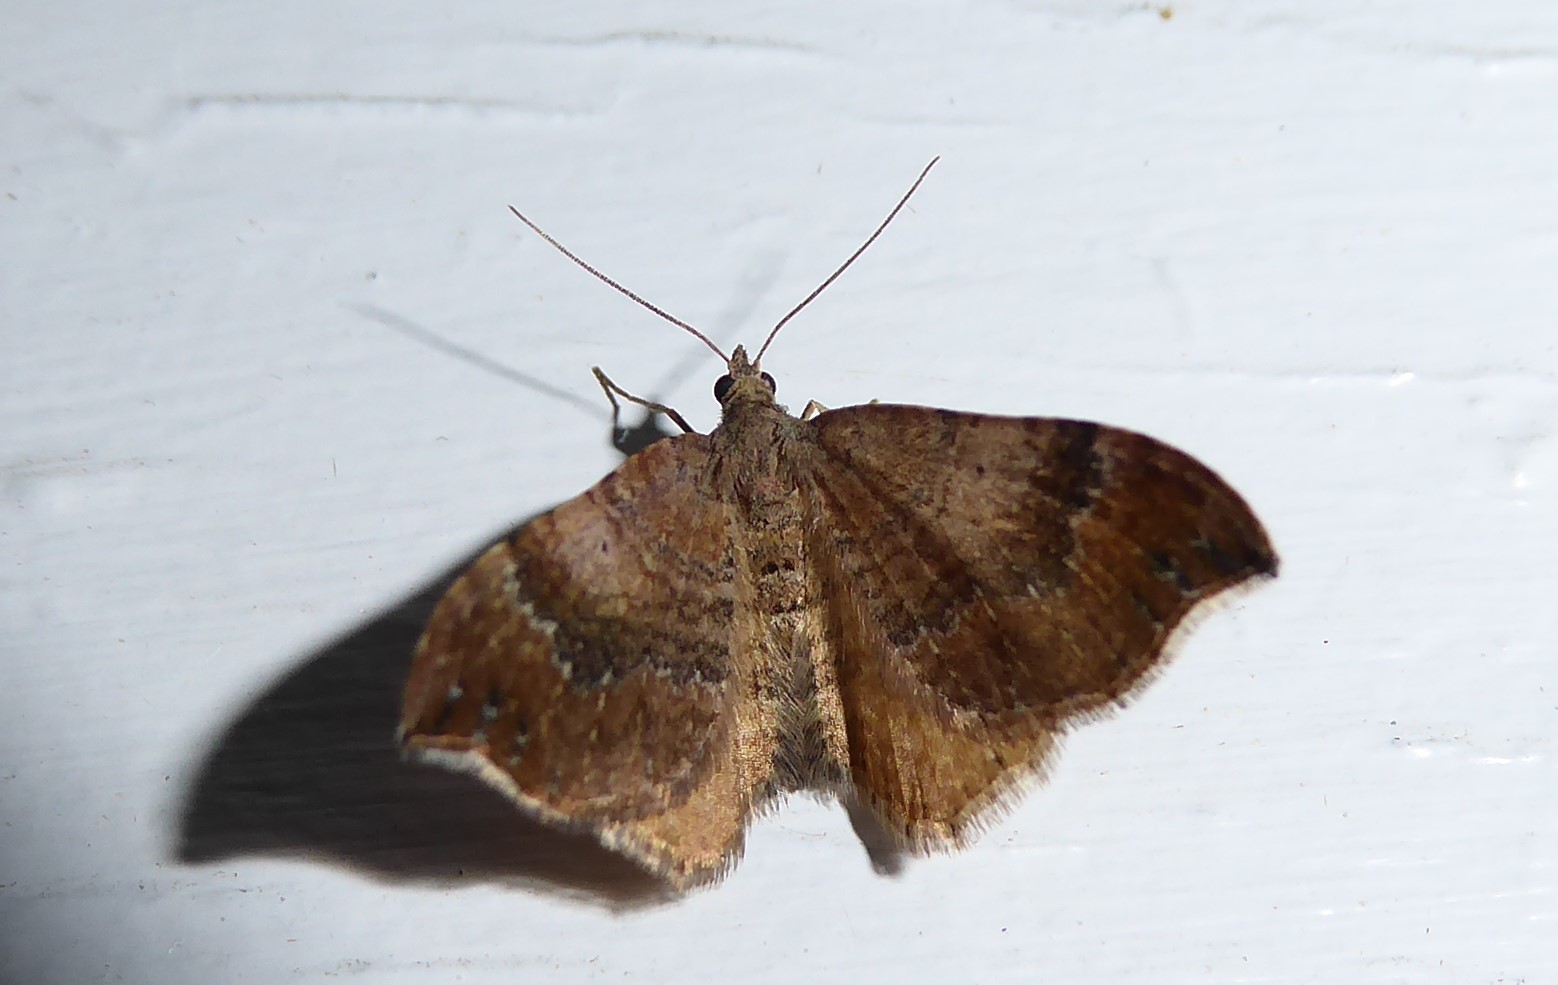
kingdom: Animalia
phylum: Arthropoda
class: Insecta
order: Lepidoptera
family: Geometridae
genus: Homodotis
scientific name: Homodotis megaspilata
